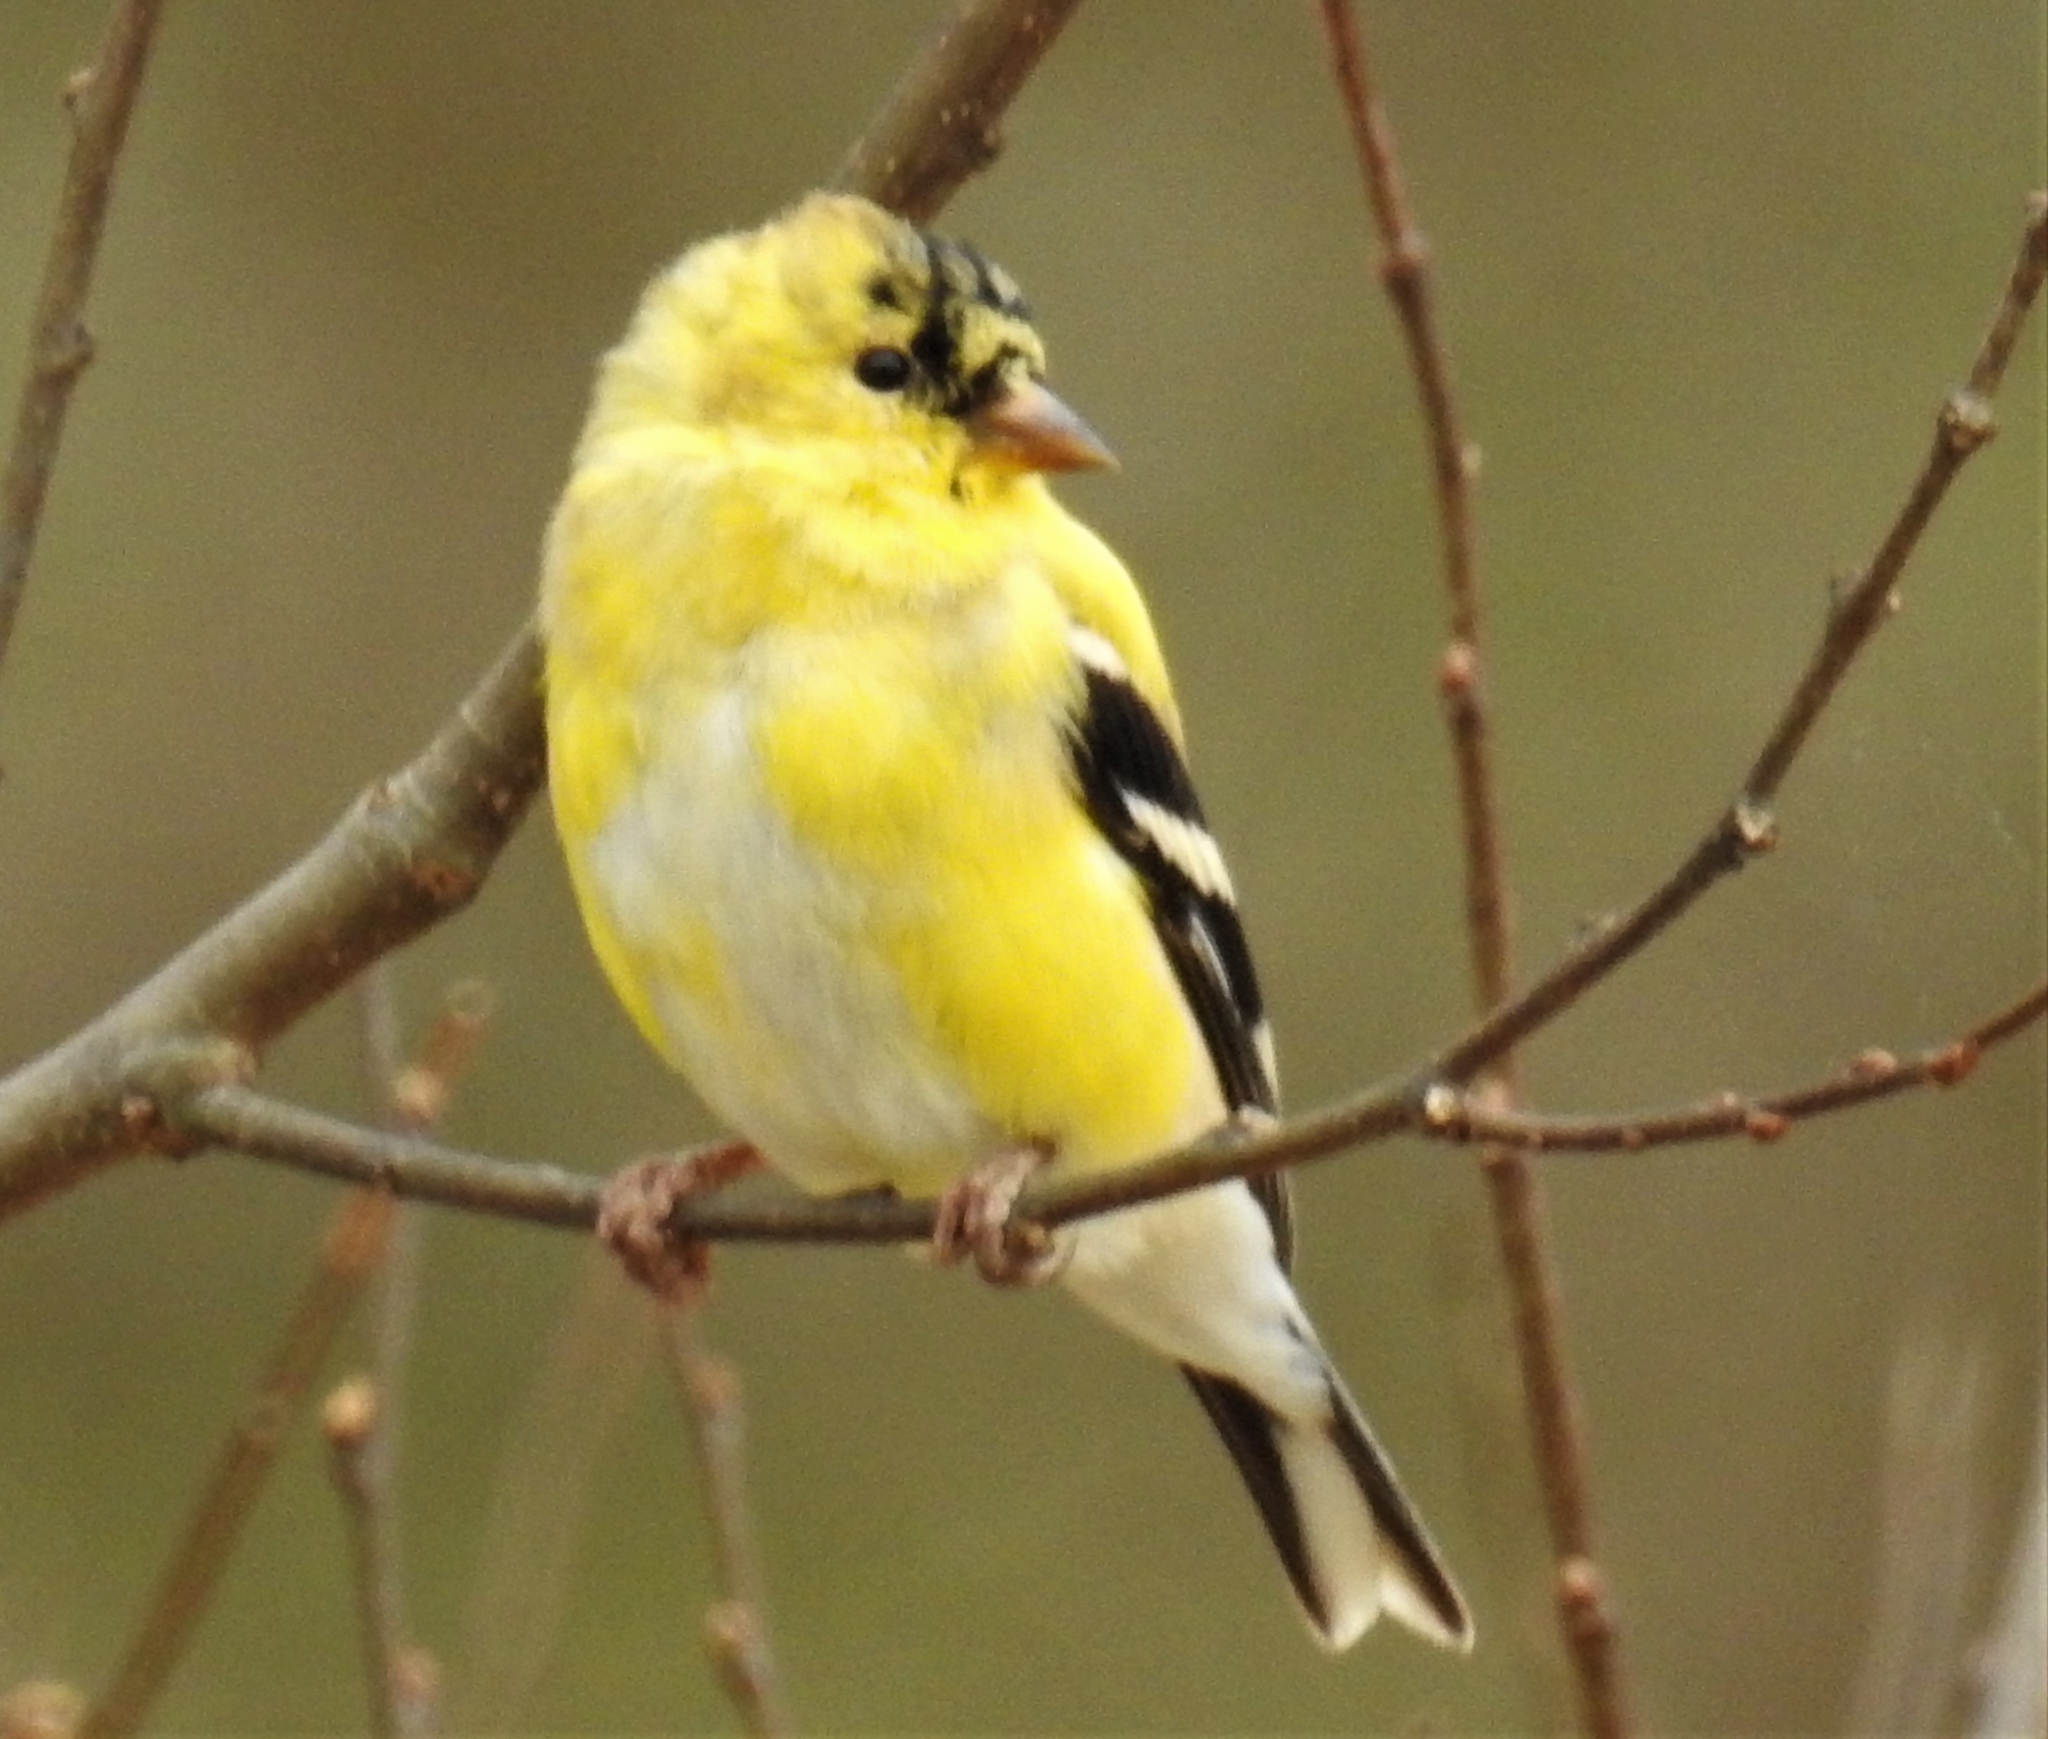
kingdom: Animalia
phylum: Chordata
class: Aves
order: Passeriformes
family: Fringillidae
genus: Spinus
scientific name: Spinus tristis
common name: American goldfinch
